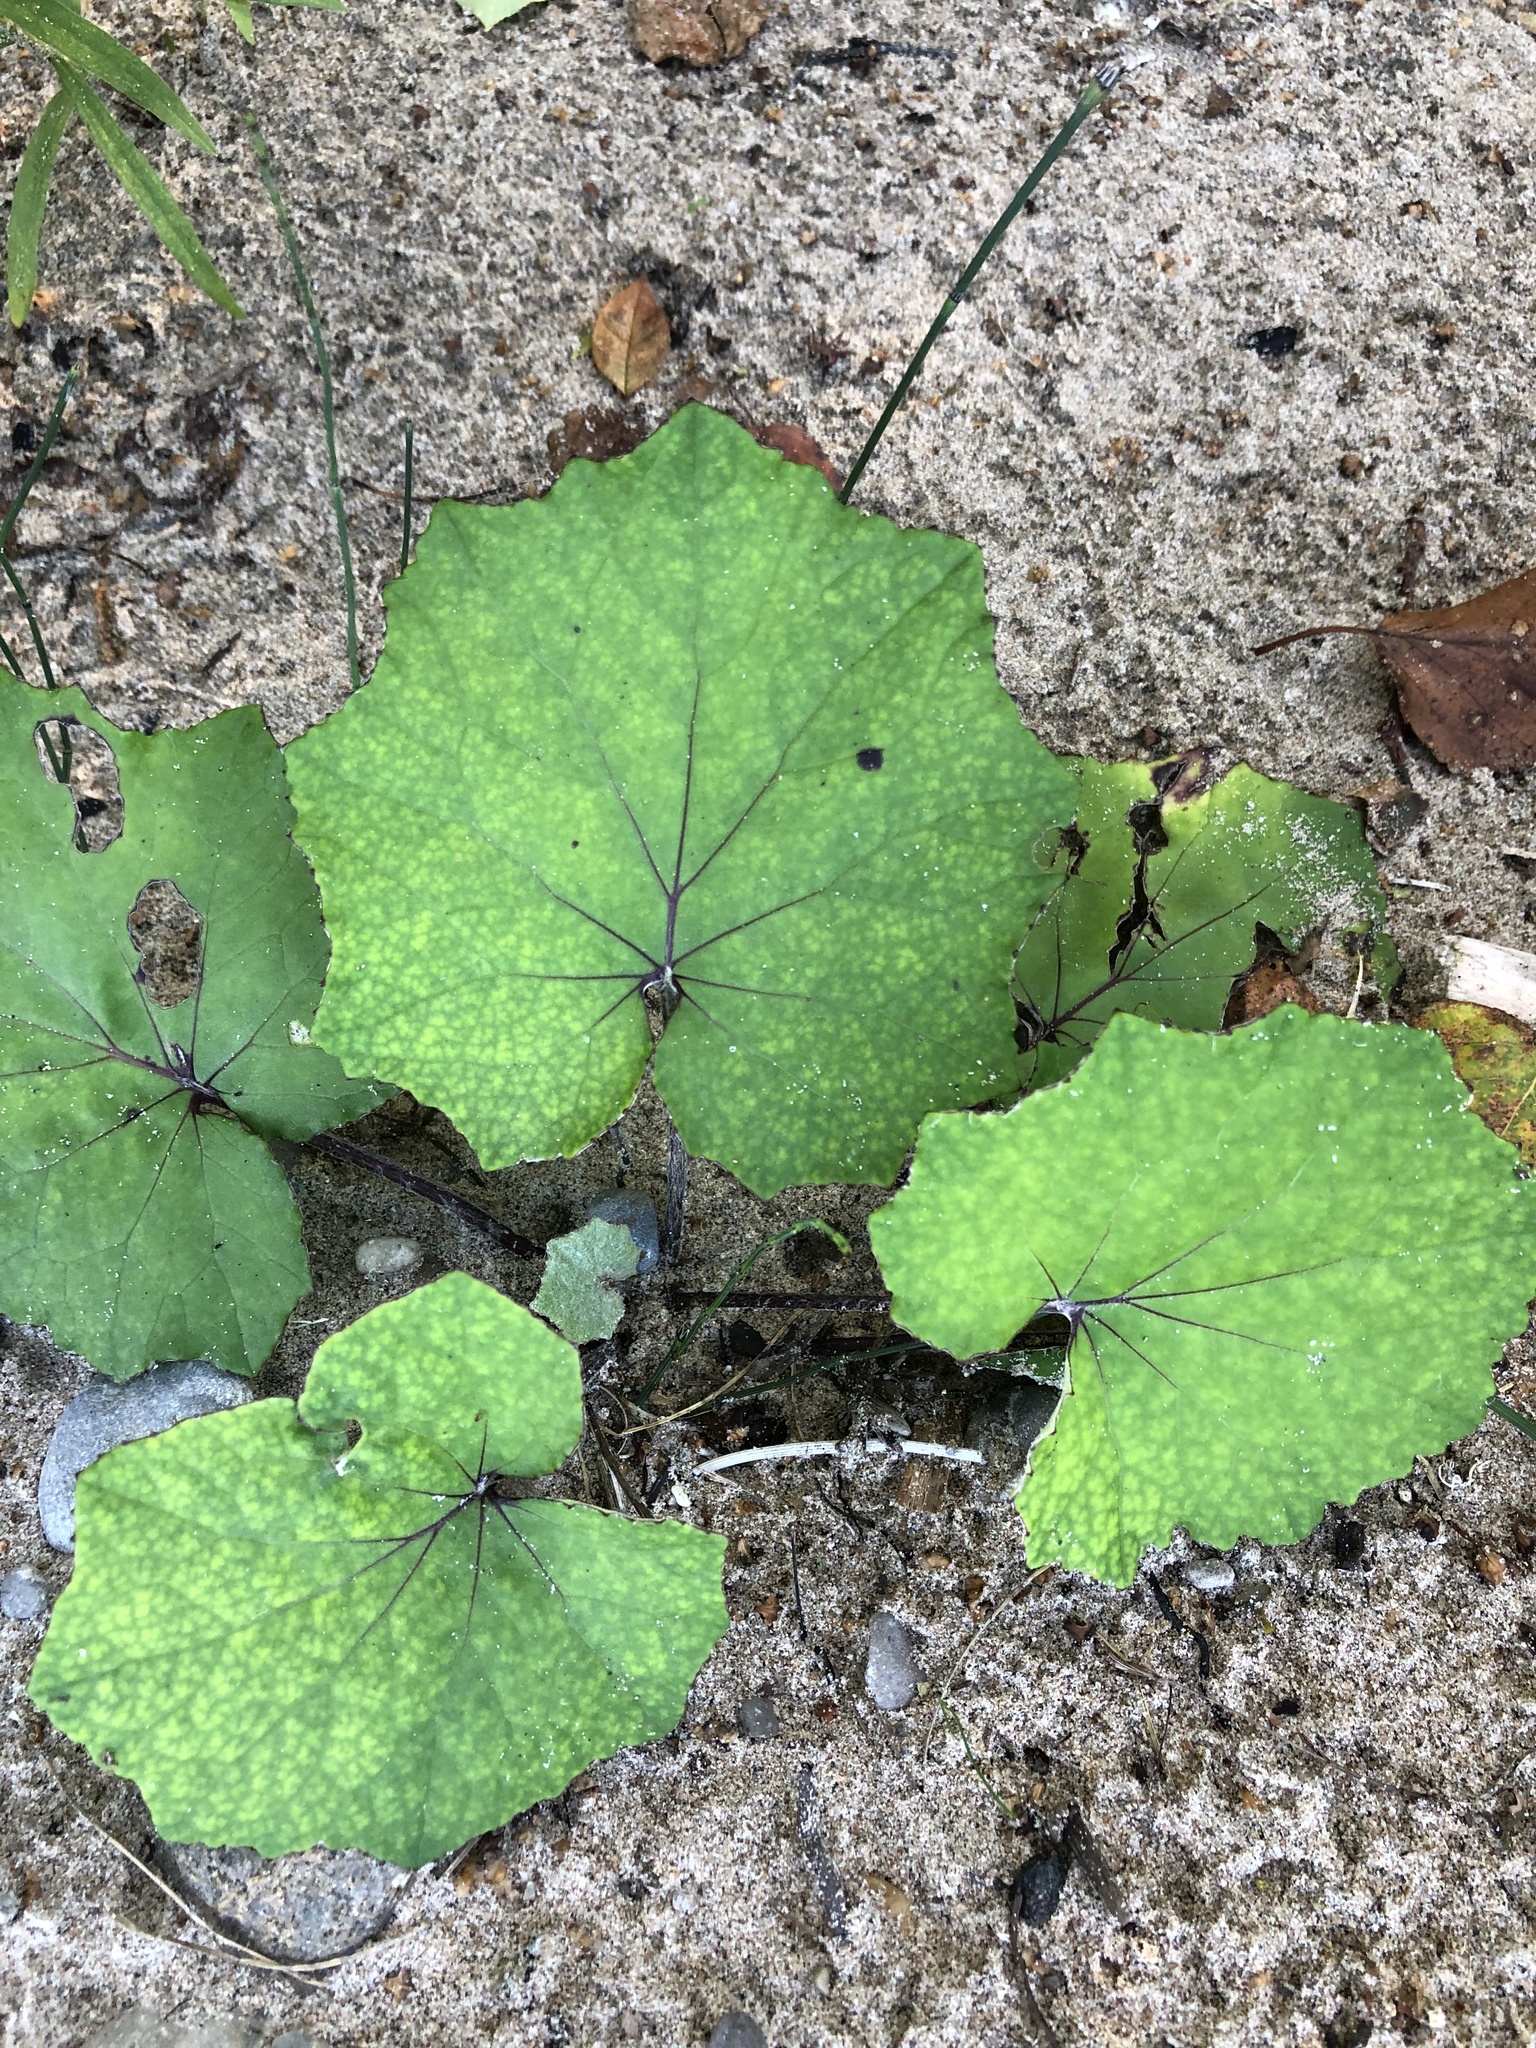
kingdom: Plantae
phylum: Tracheophyta
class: Magnoliopsida
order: Asterales
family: Asteraceae
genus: Tussilago
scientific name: Tussilago farfara
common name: Coltsfoot
